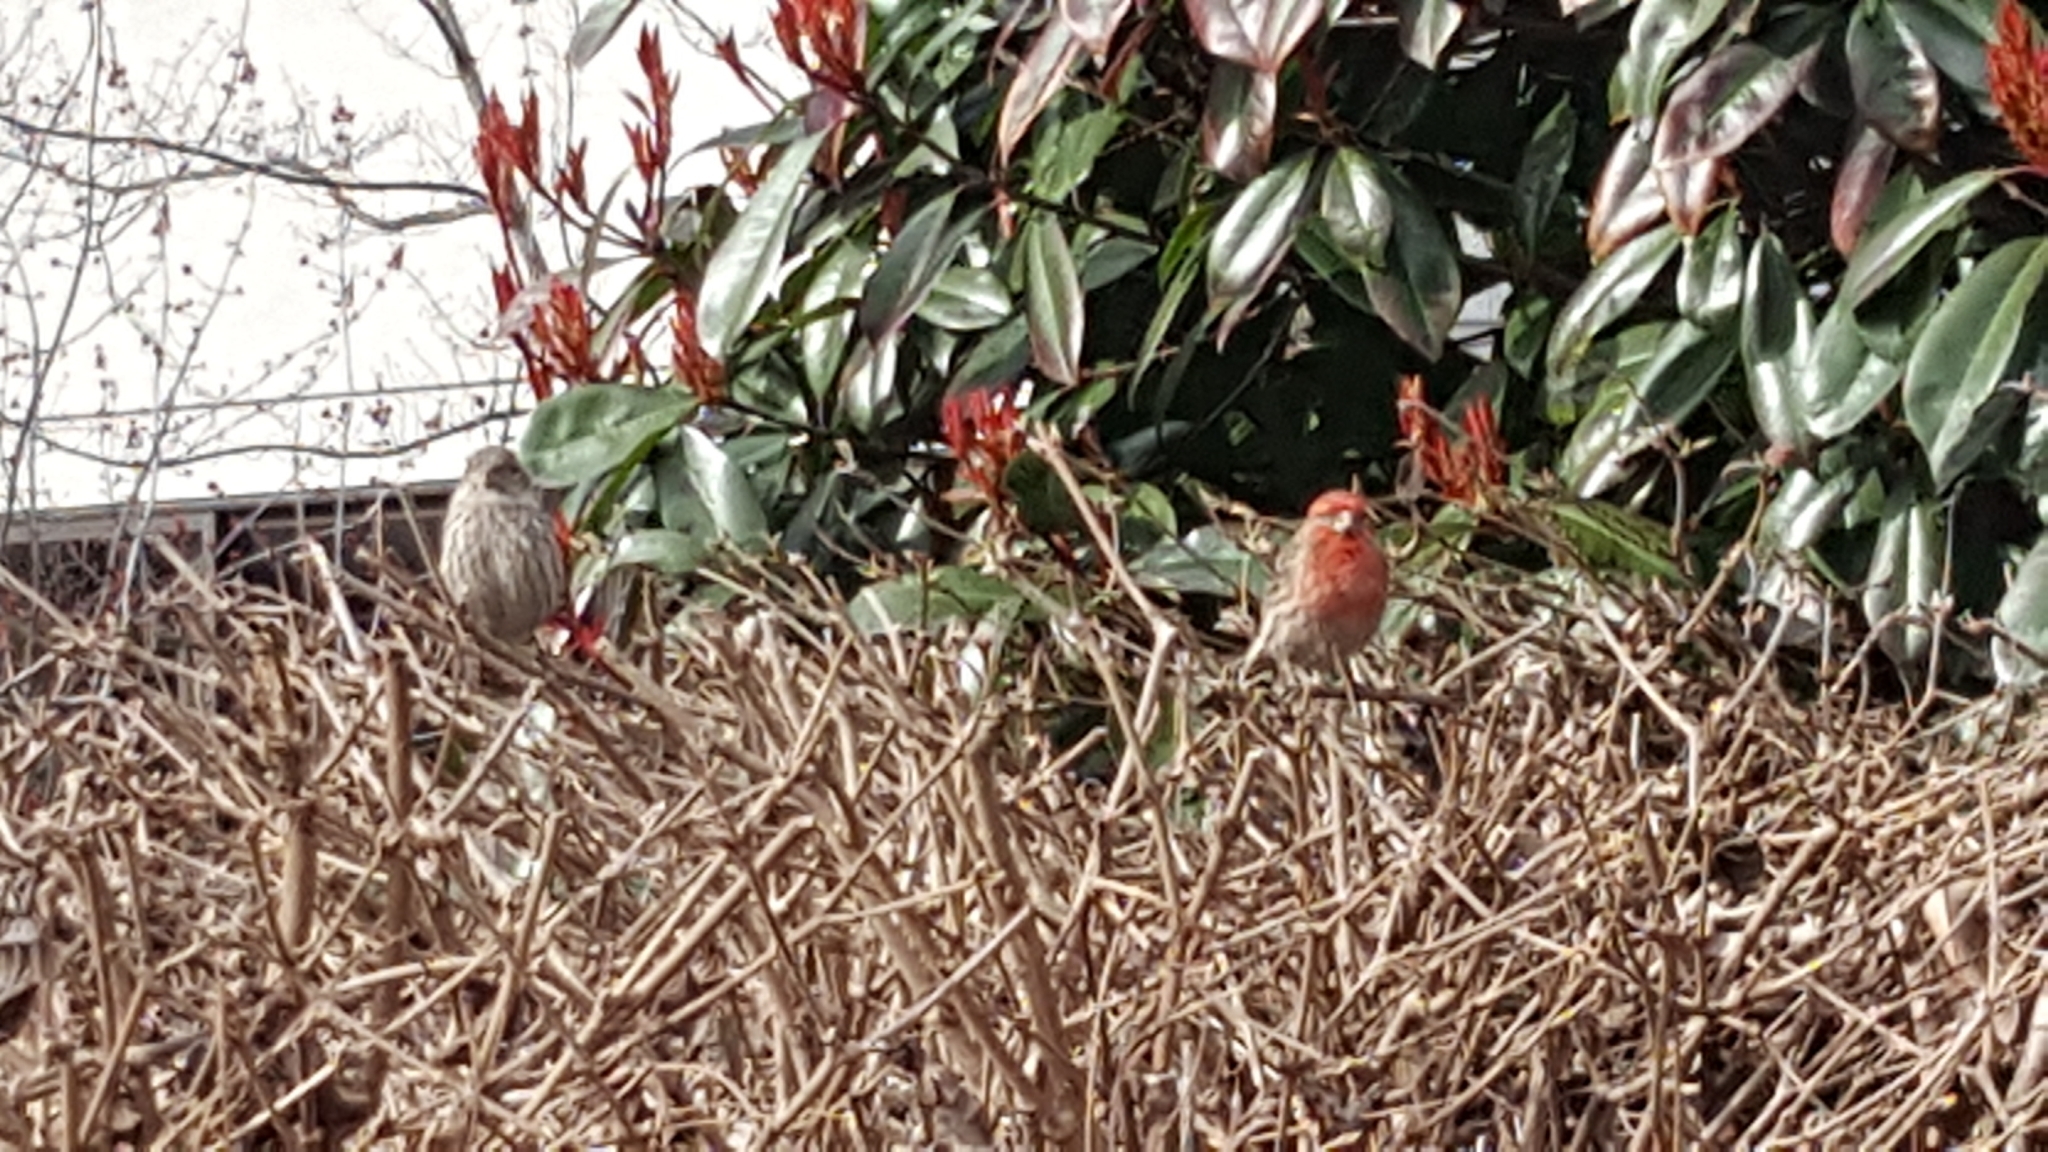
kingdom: Animalia
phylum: Chordata
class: Aves
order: Passeriformes
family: Fringillidae
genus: Haemorhous
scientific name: Haemorhous mexicanus
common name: House finch
